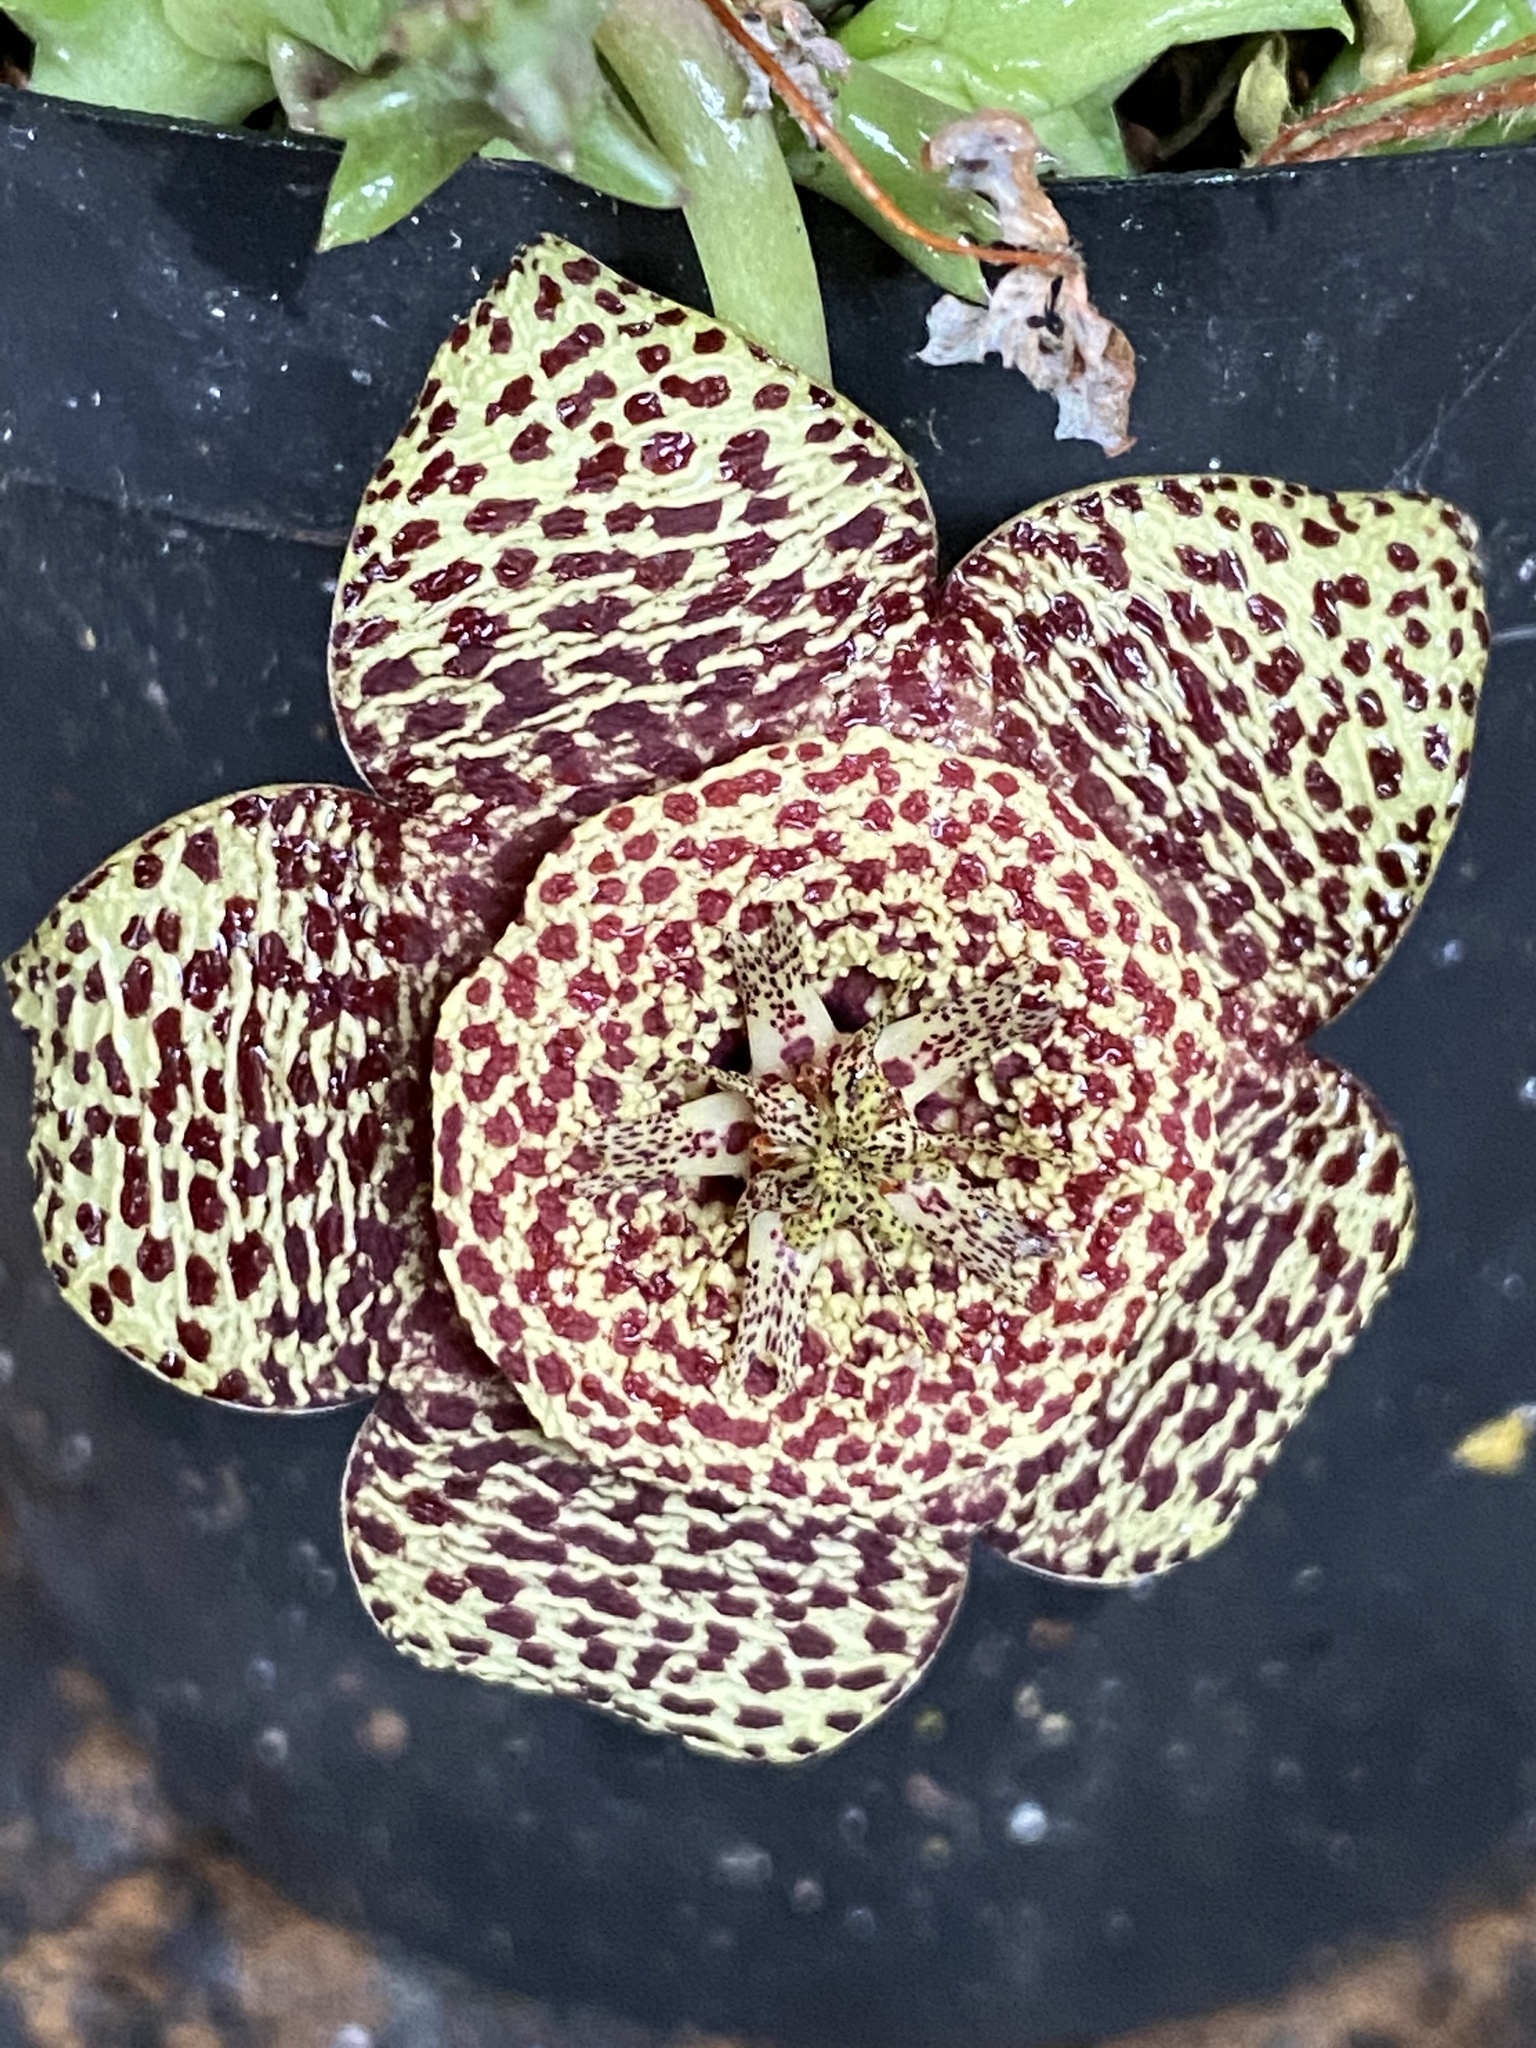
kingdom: Plantae
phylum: Tracheophyta
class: Magnoliopsida
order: Gentianales
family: Apocynaceae
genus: Ceropegia
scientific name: Ceropegia mixta
